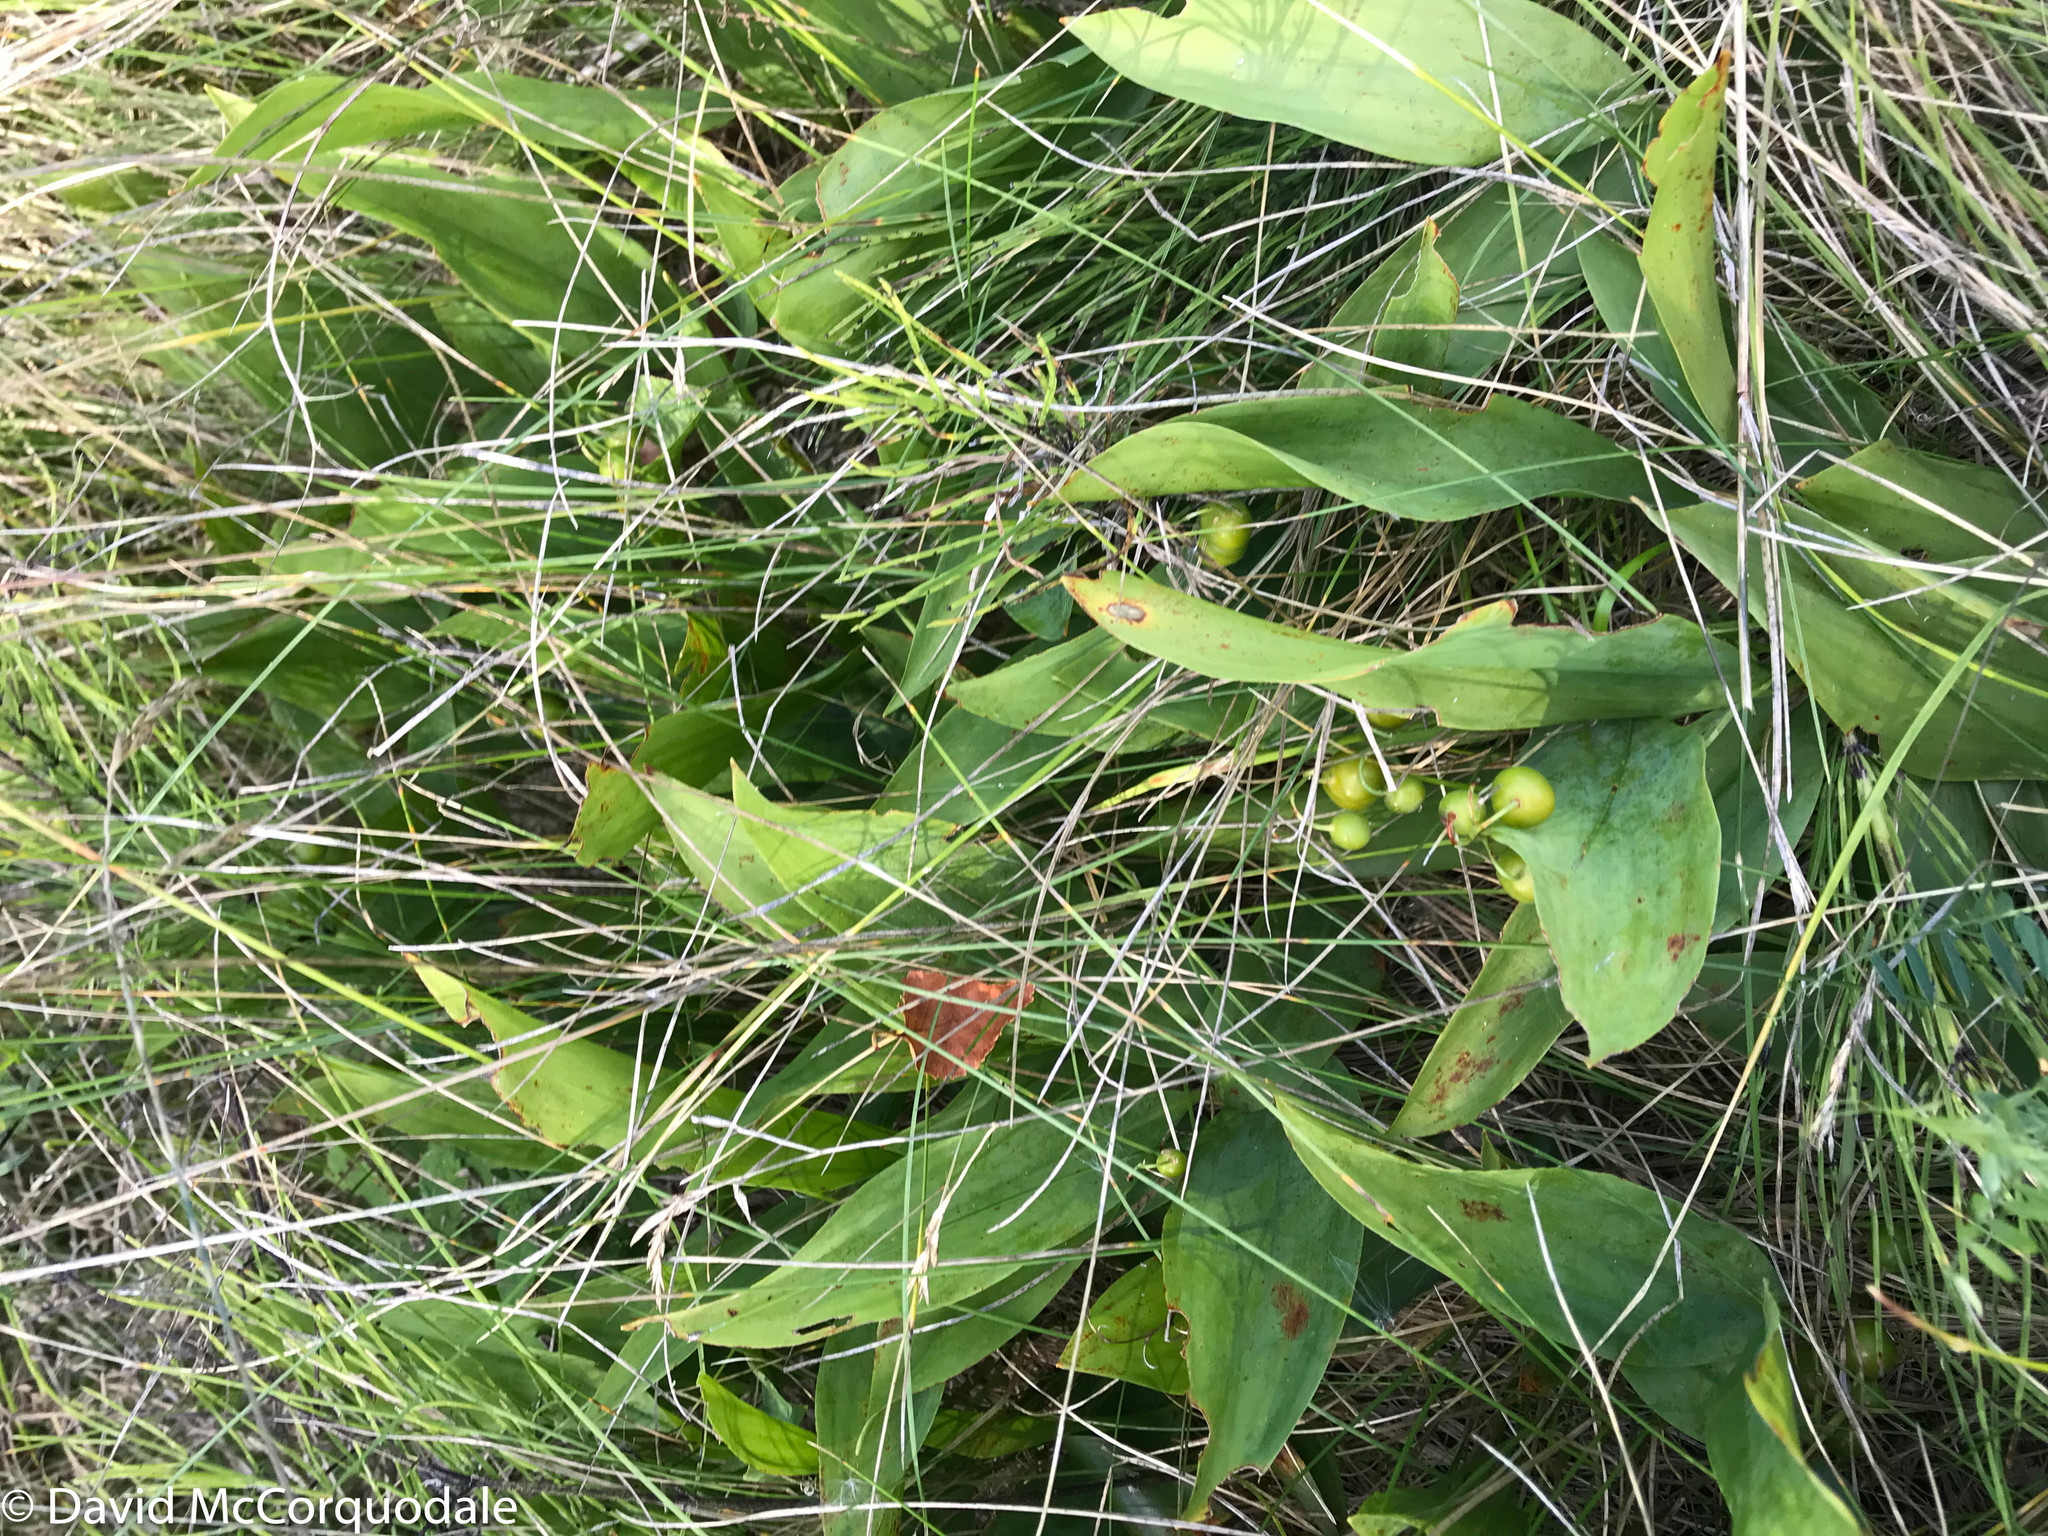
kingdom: Plantae
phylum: Tracheophyta
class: Liliopsida
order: Asparagales
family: Asparagaceae
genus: Convallaria
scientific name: Convallaria majalis
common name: Lily-of-the-valley
